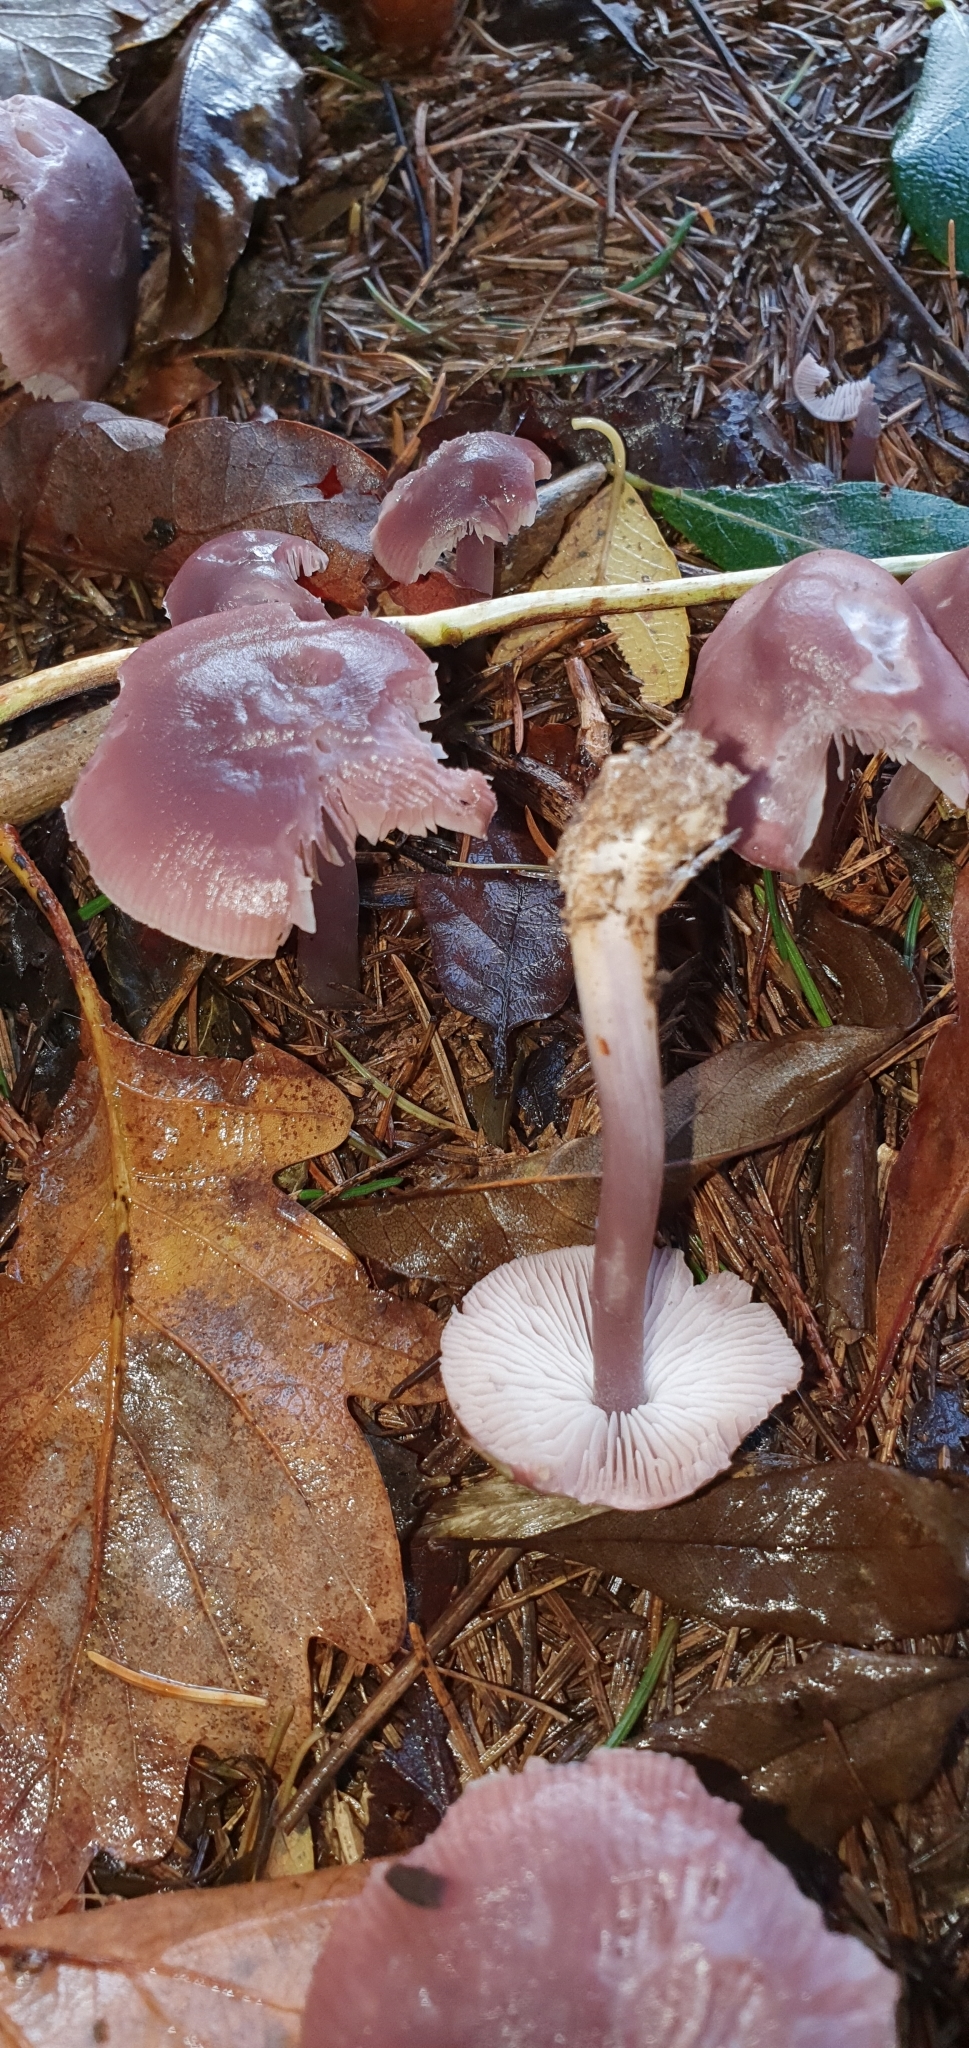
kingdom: Fungi
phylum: Basidiomycota
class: Agaricomycetes
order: Agaricales
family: Mycenaceae
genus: Mycena
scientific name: Mycena pura
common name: Lilac bonnet
